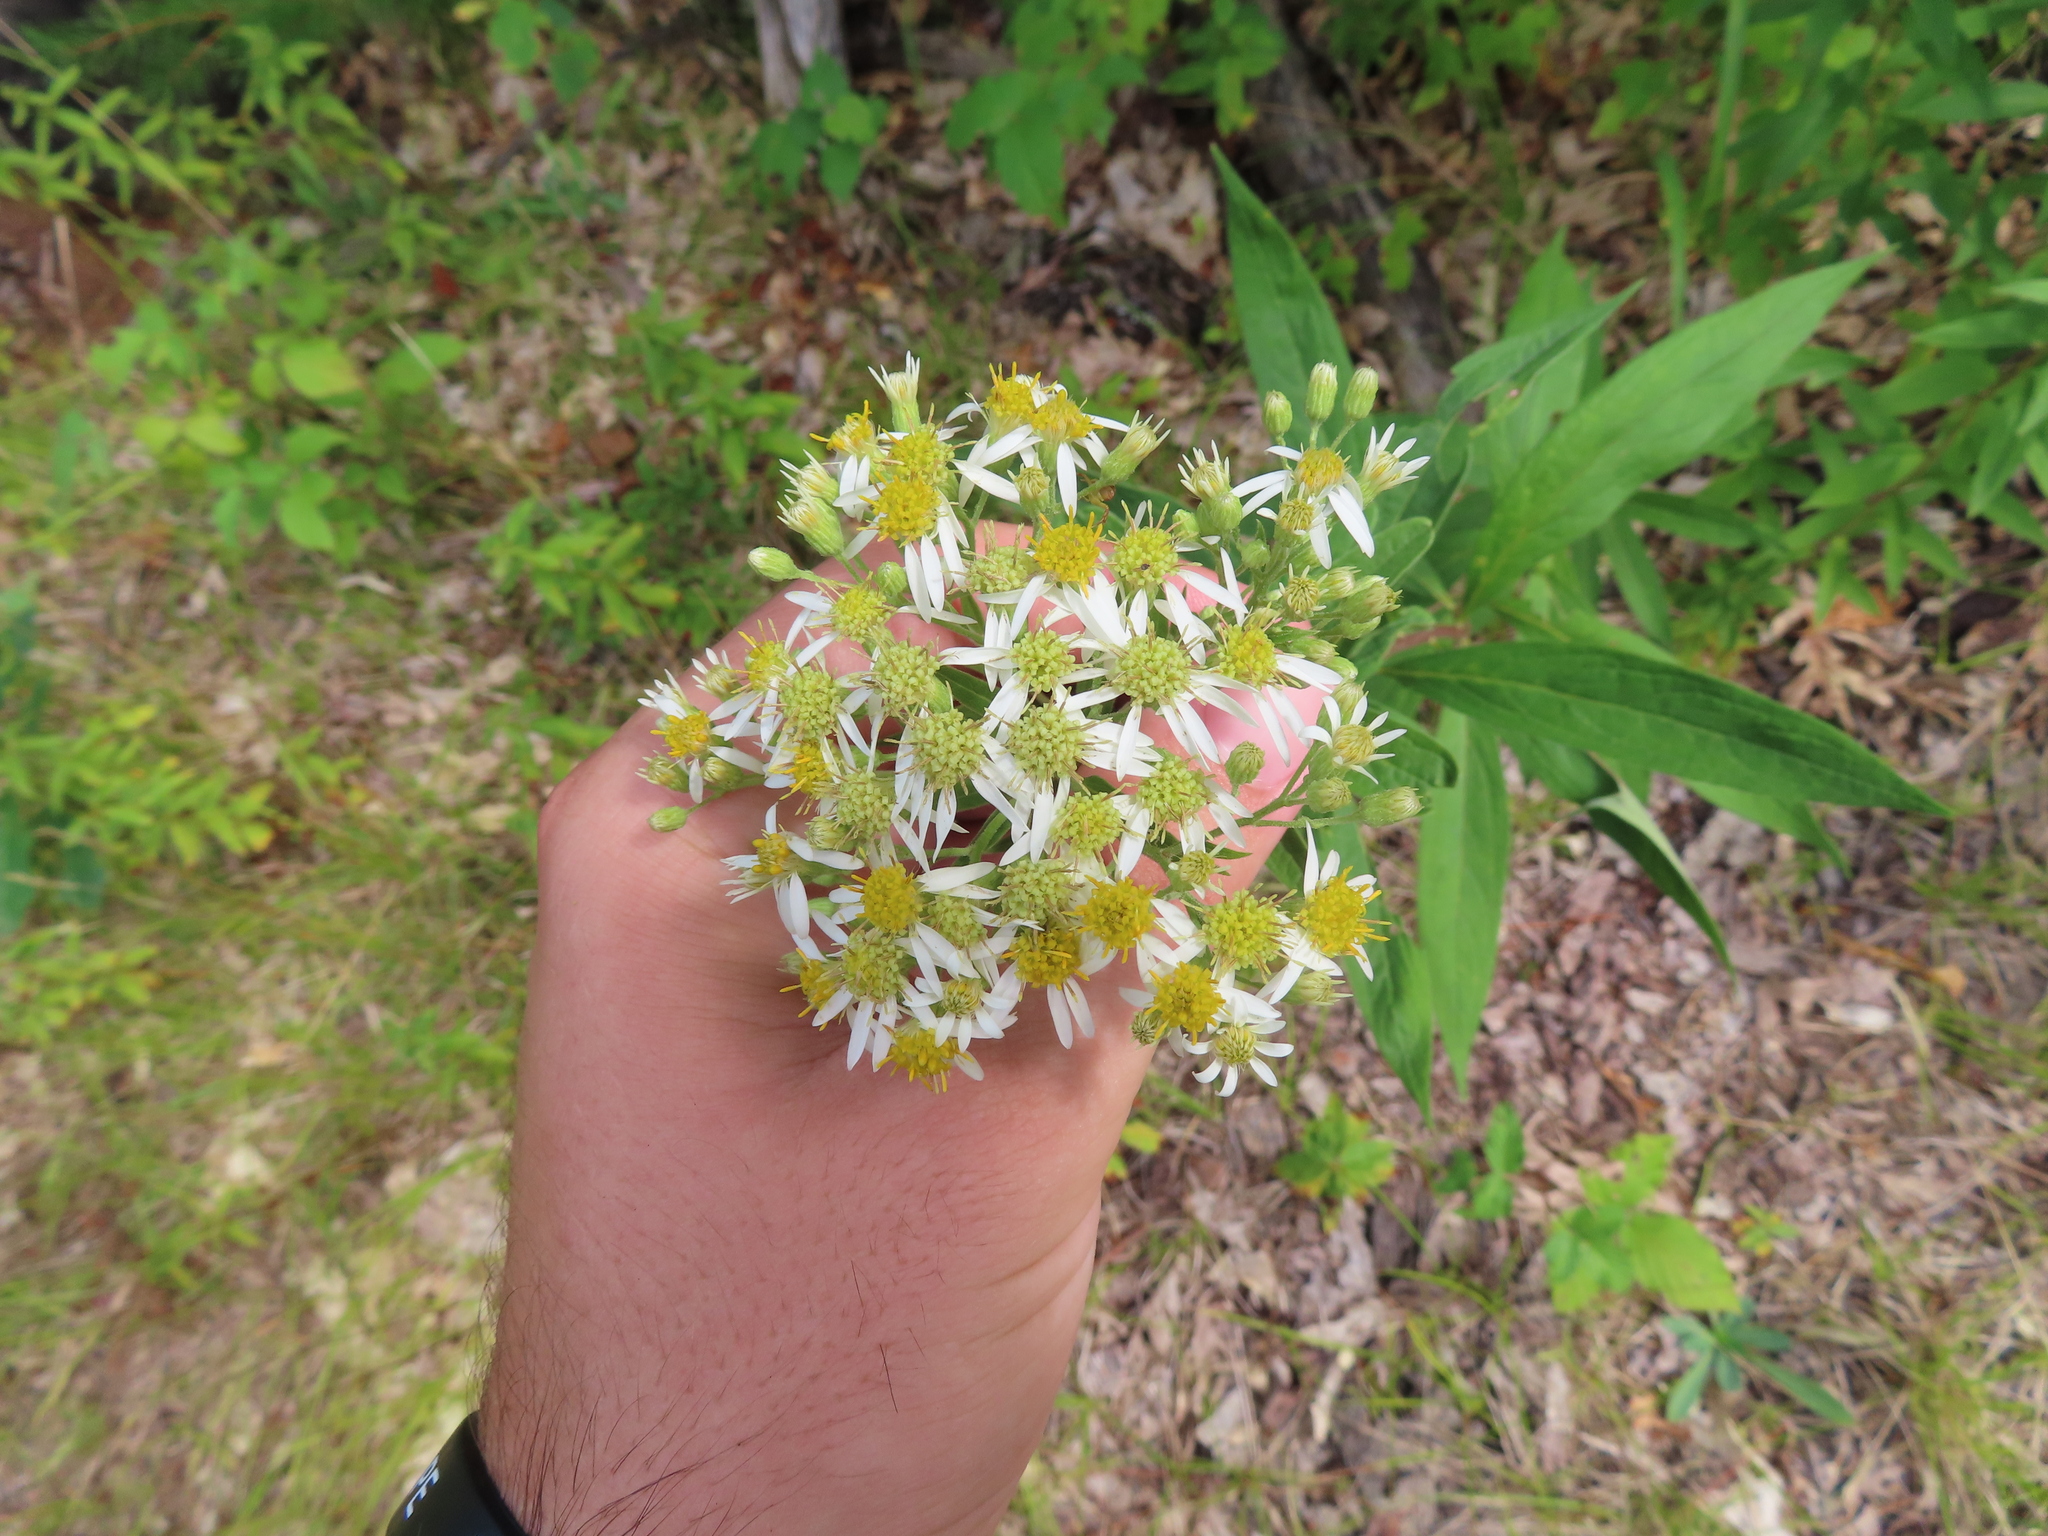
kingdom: Plantae
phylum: Tracheophyta
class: Magnoliopsida
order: Asterales
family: Asteraceae
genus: Doellingeria
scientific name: Doellingeria umbellata
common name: Flat-top white aster
